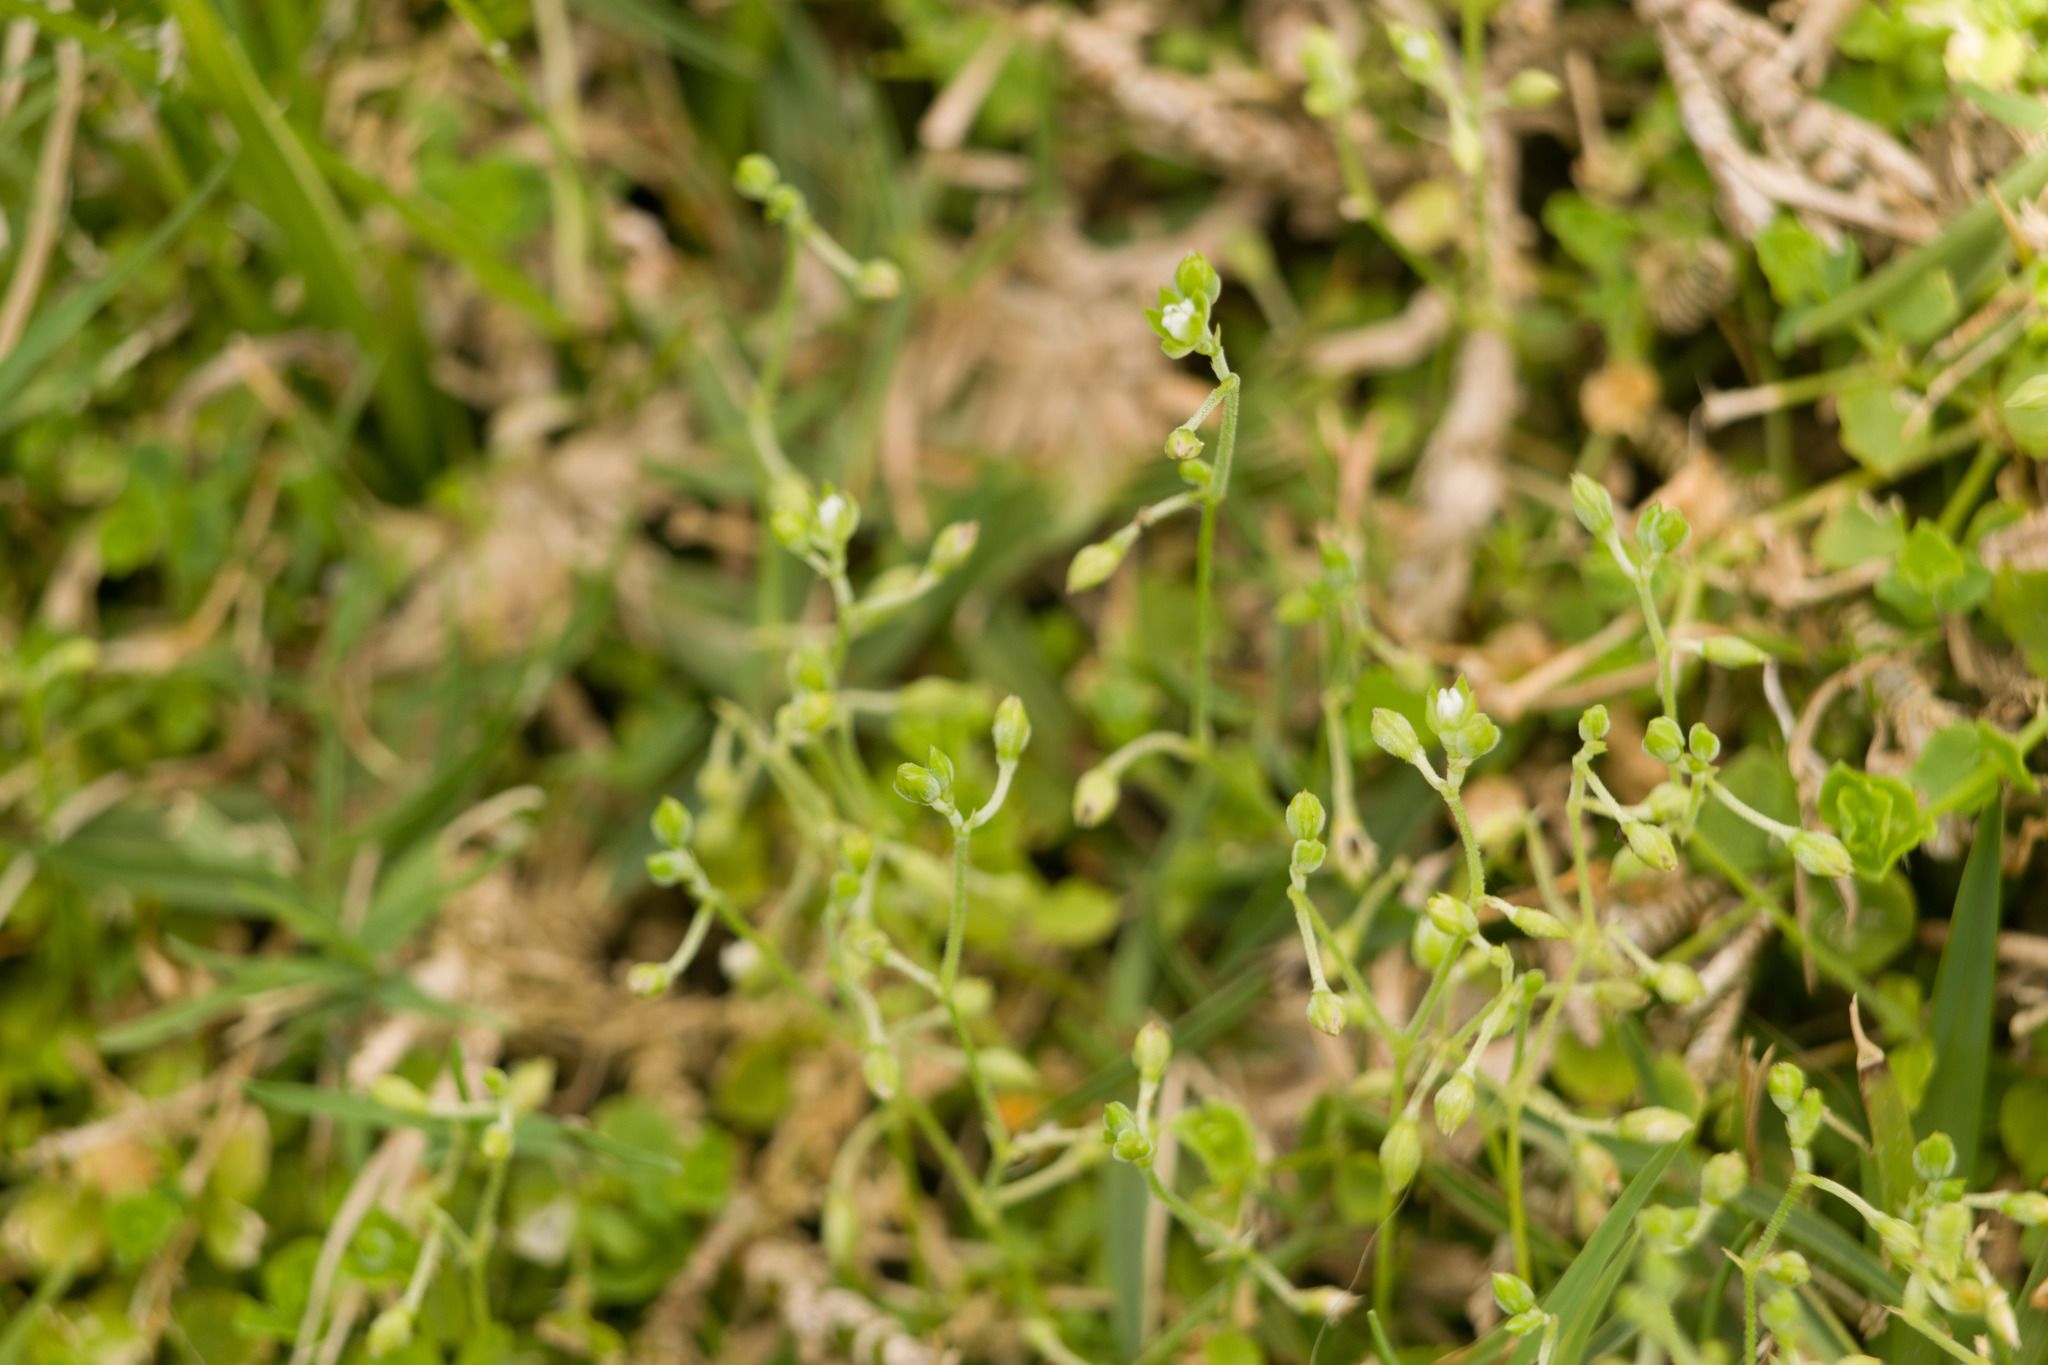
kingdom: Plantae
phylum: Tracheophyta
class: Magnoliopsida
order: Caryophyllales
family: Caryophyllaceae
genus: Drymaria
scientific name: Drymaria cordata
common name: Whitesnow
